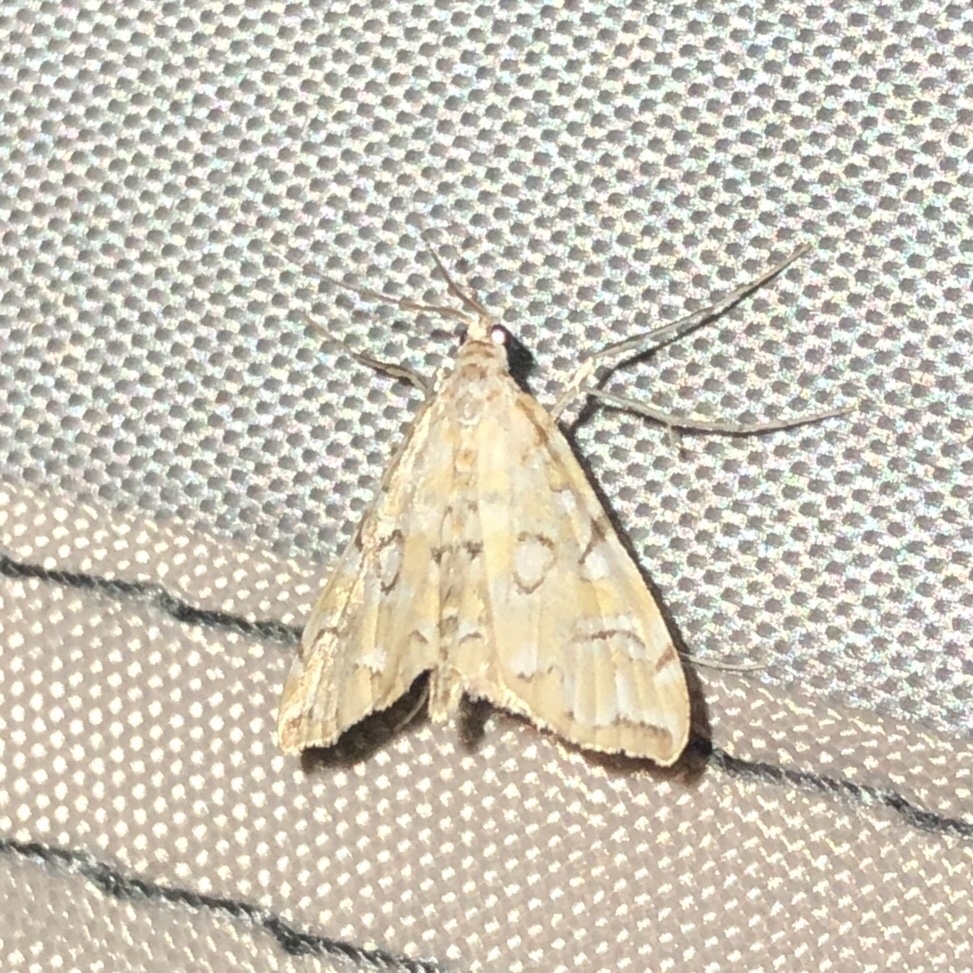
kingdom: Animalia
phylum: Arthropoda
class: Insecta
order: Lepidoptera
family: Crambidae
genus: Elophila
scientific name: Elophila icciusalis
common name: Pondside pyralid moth
